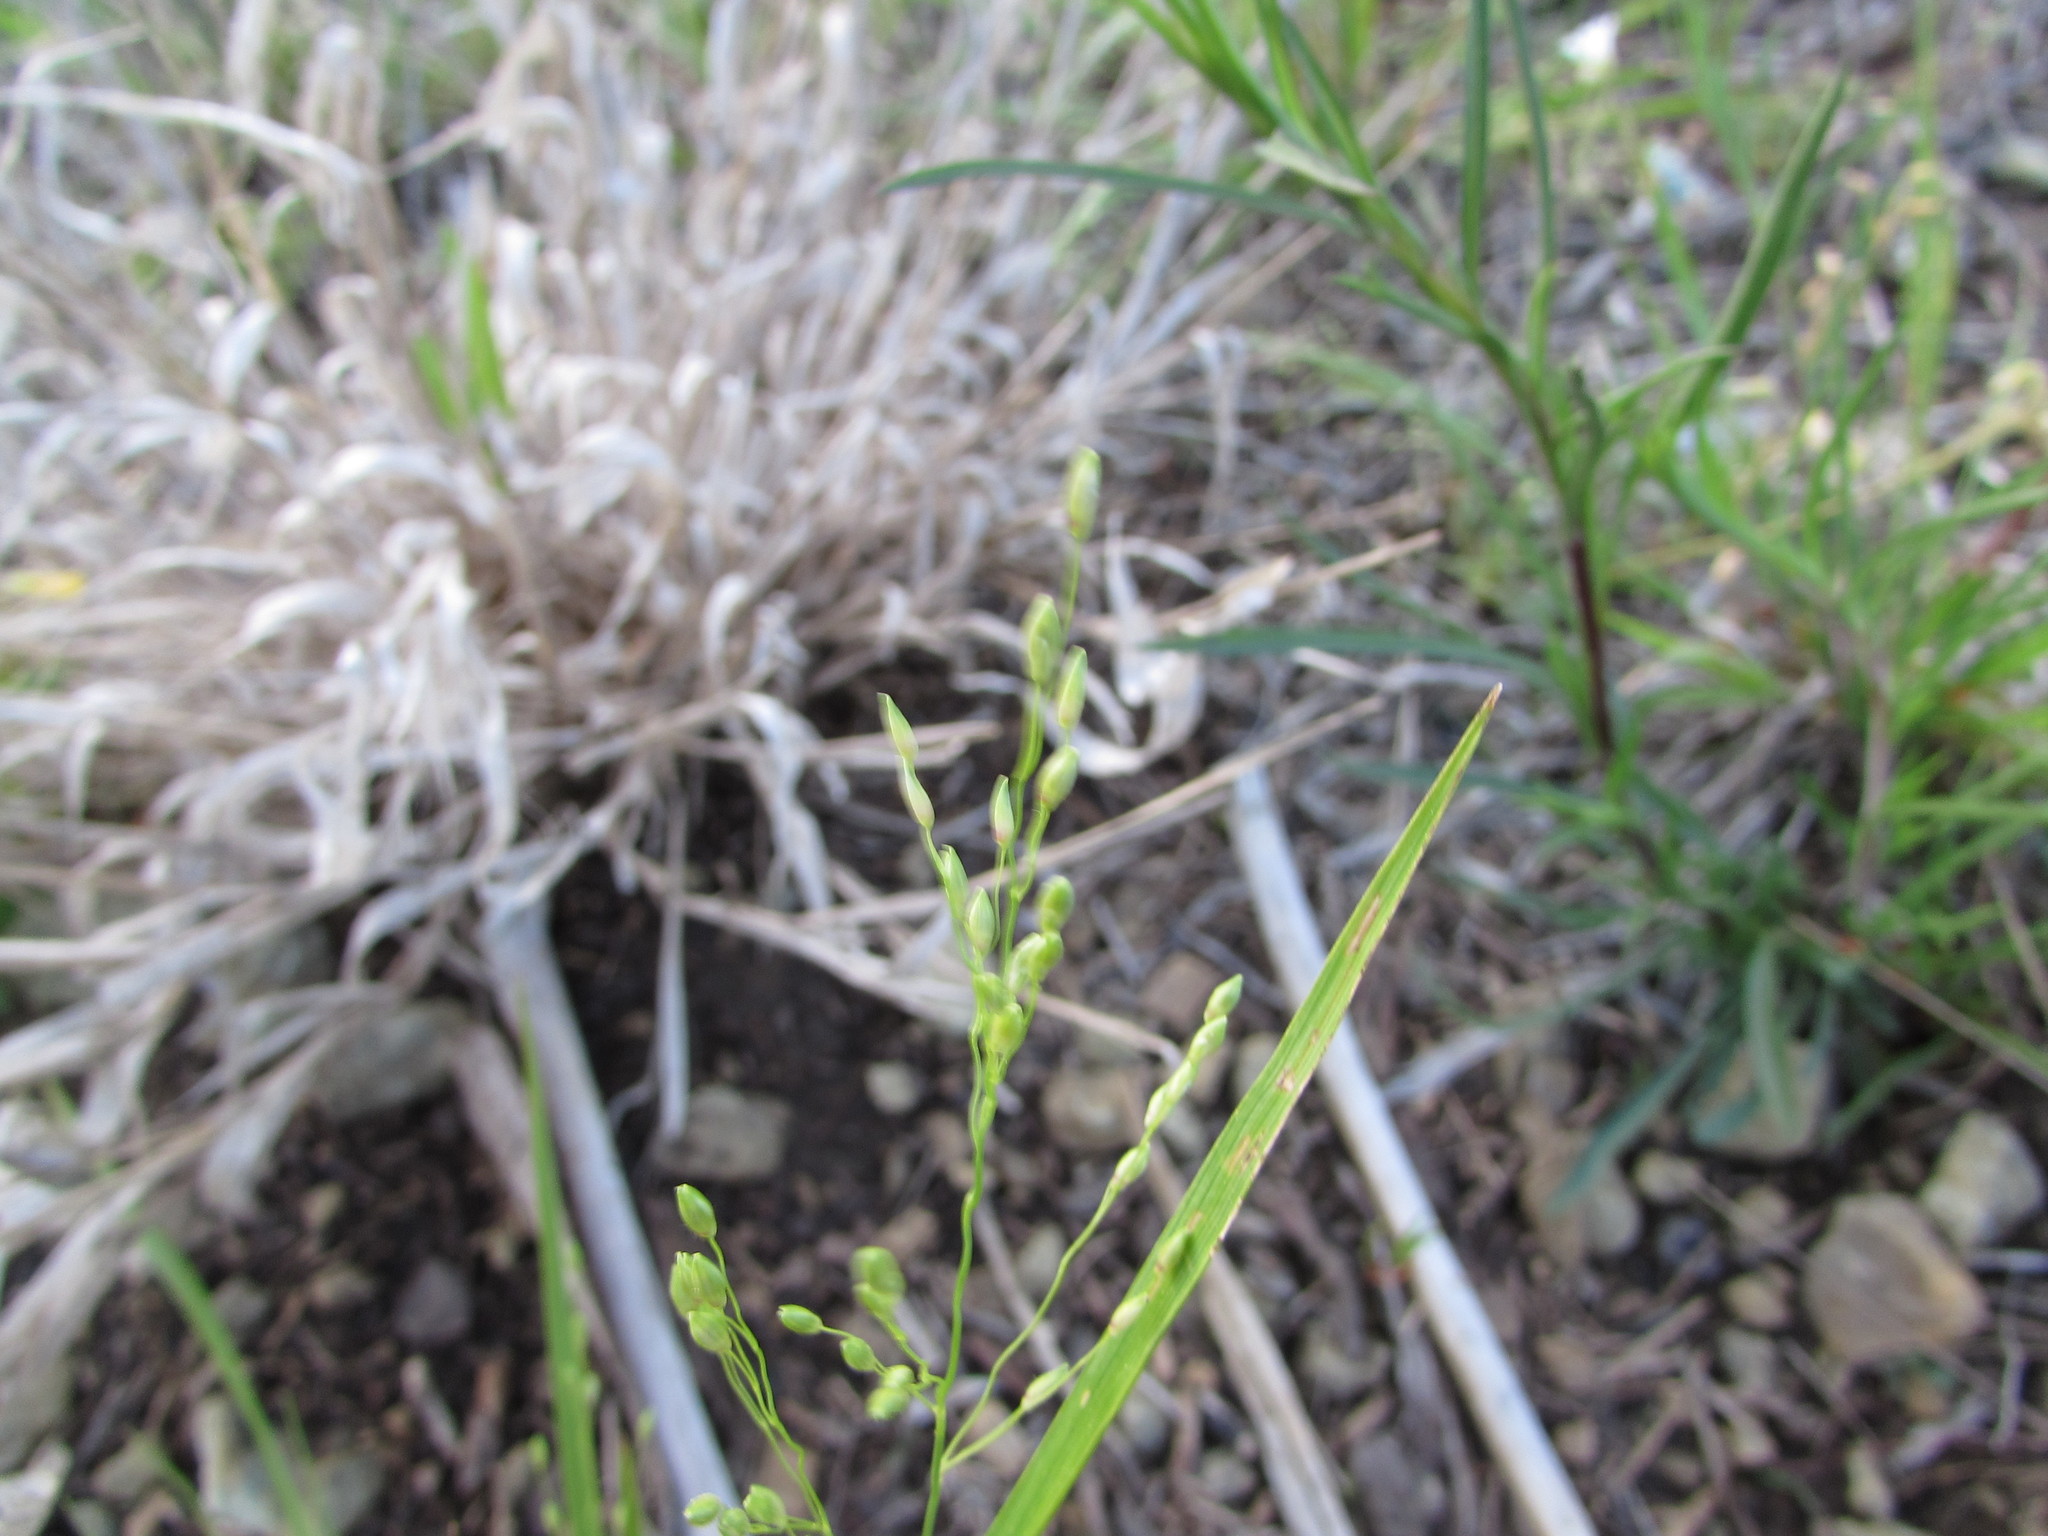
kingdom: Plantae
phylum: Tracheophyta
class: Liliopsida
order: Poales
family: Poaceae
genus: Dichanthelium
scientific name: Dichanthelium depauperatum
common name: Depauperate panicgrass
